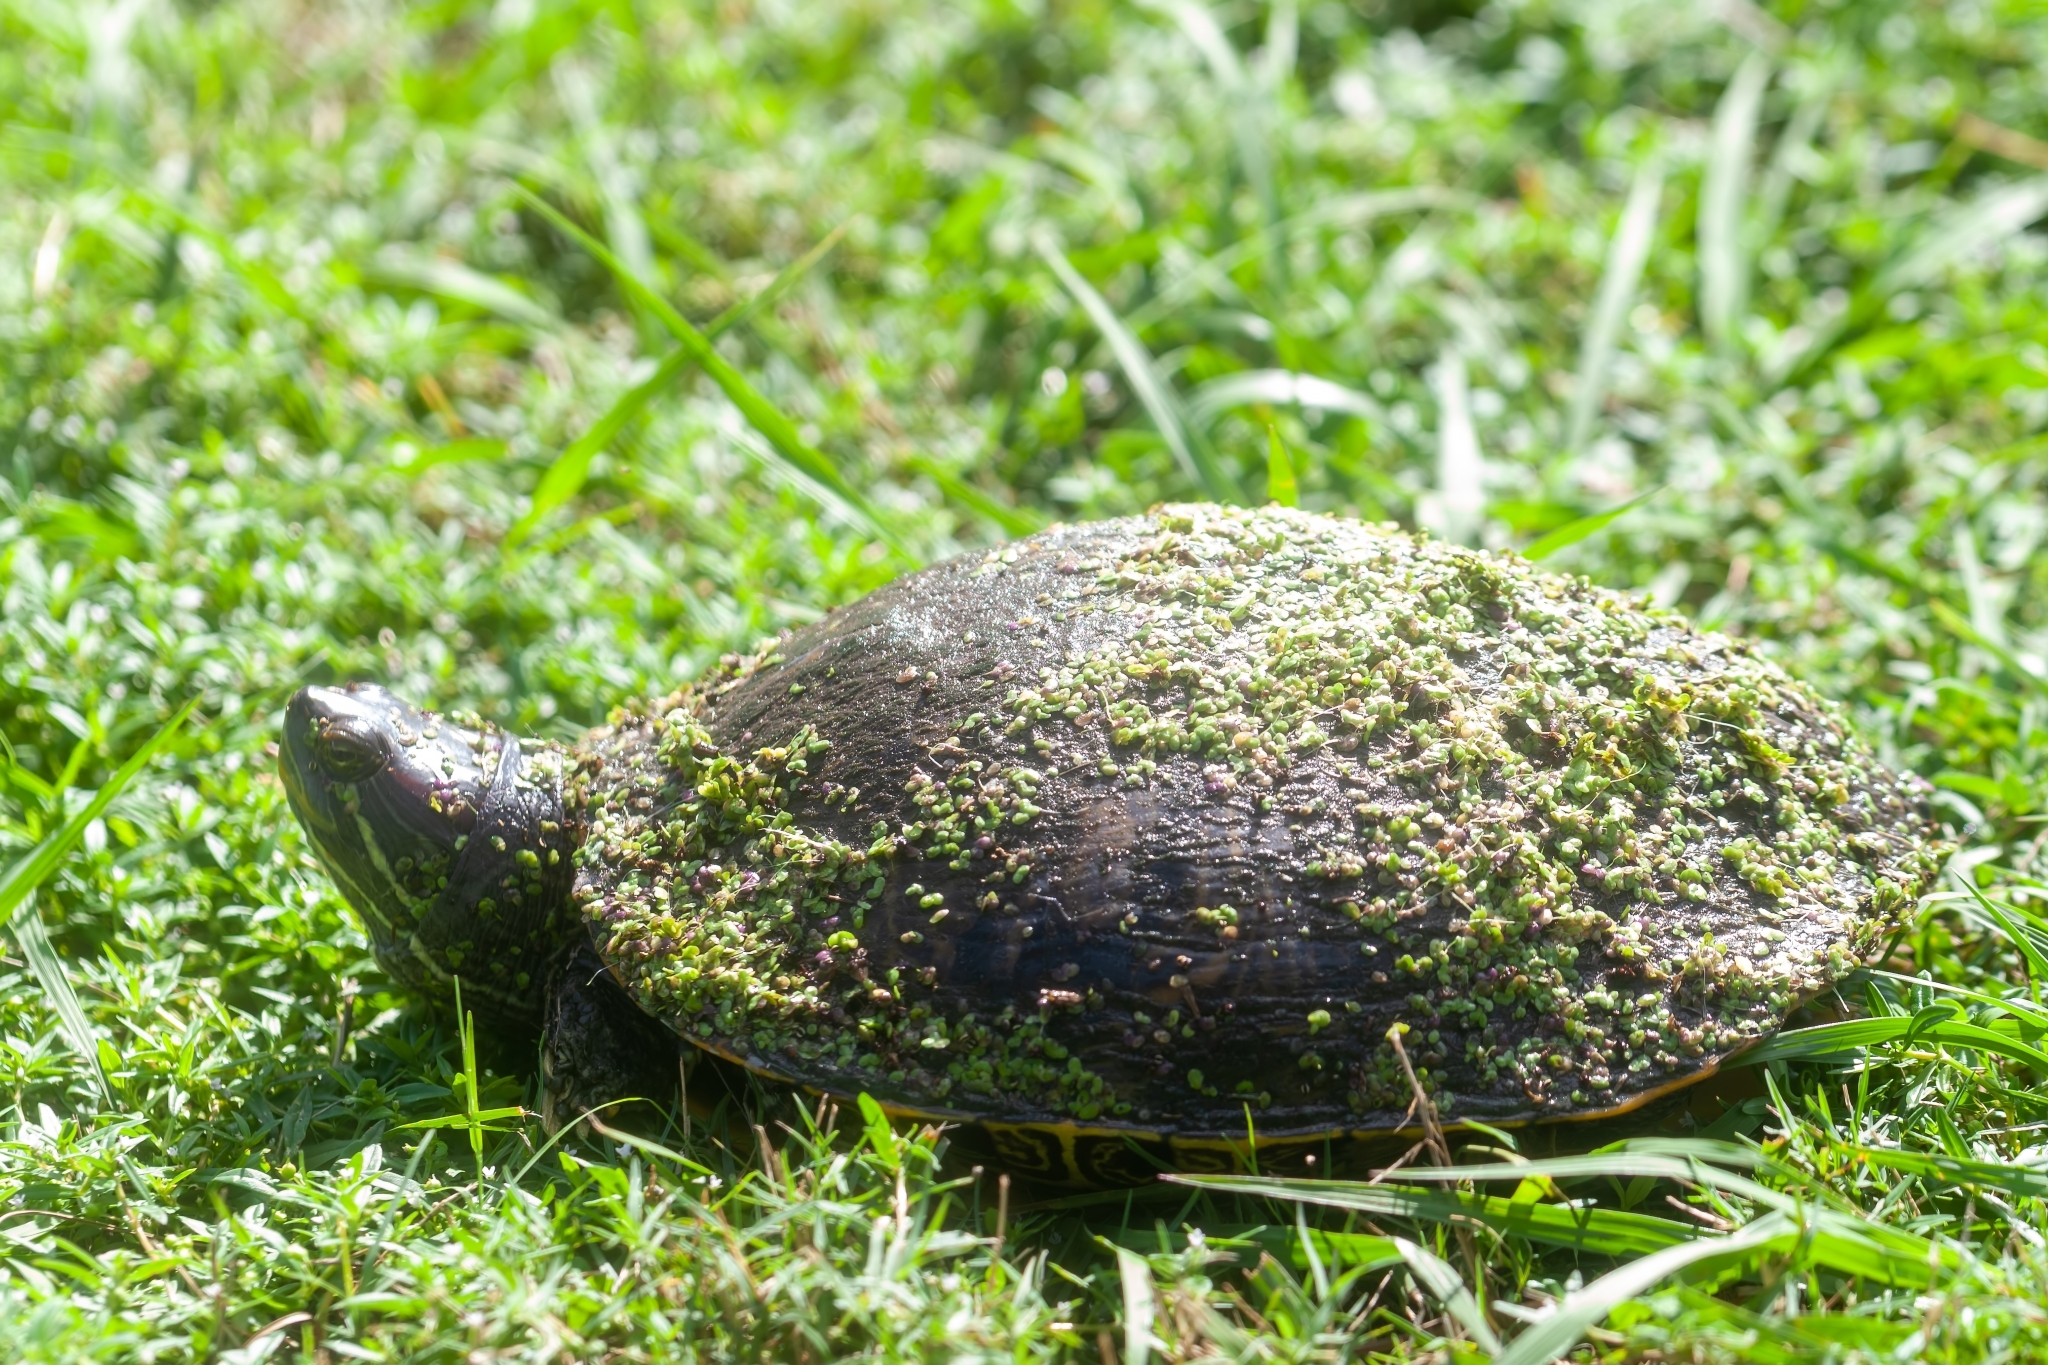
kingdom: Animalia
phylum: Chordata
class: Testudines
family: Emydidae
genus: Trachemys
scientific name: Trachemys scripta
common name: Slider
